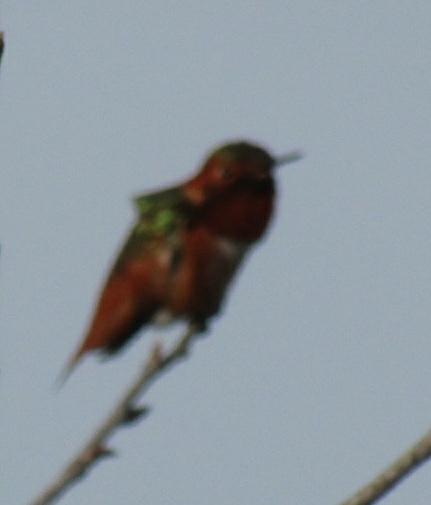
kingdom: Animalia
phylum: Chordata
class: Aves
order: Apodiformes
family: Trochilidae
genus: Selasphorus
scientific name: Selasphorus sasin
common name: Allen's hummingbird
